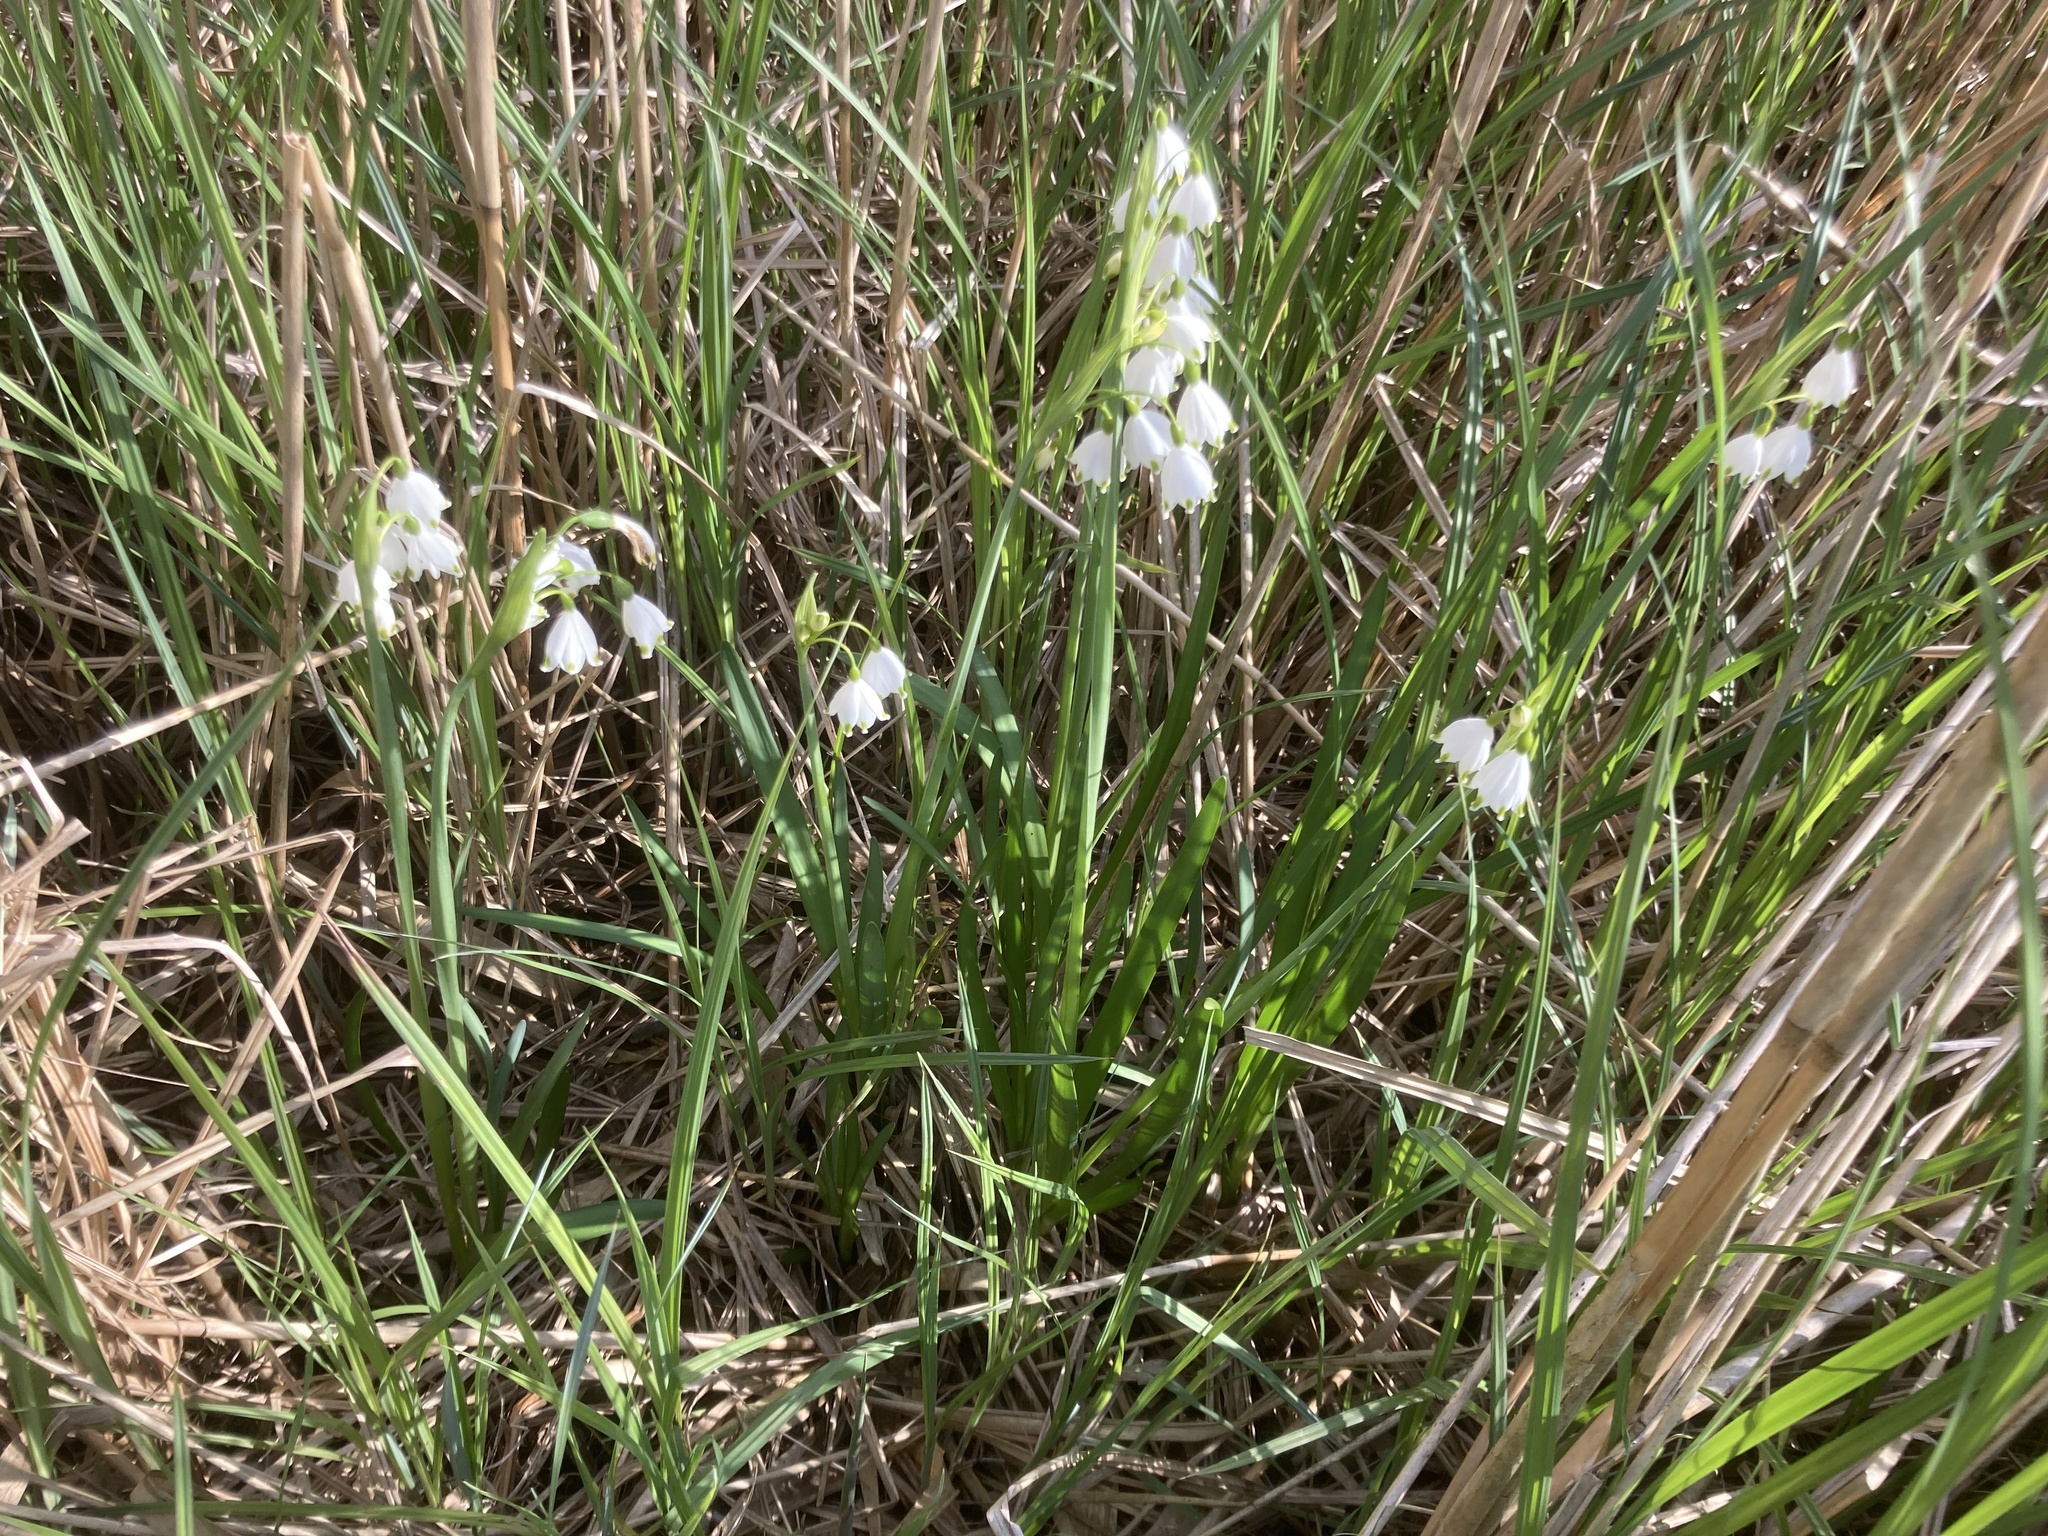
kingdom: Plantae
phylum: Tracheophyta
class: Liliopsida
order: Asparagales
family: Amaryllidaceae
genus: Leucojum
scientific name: Leucojum aestivum
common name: Summer snowflake
